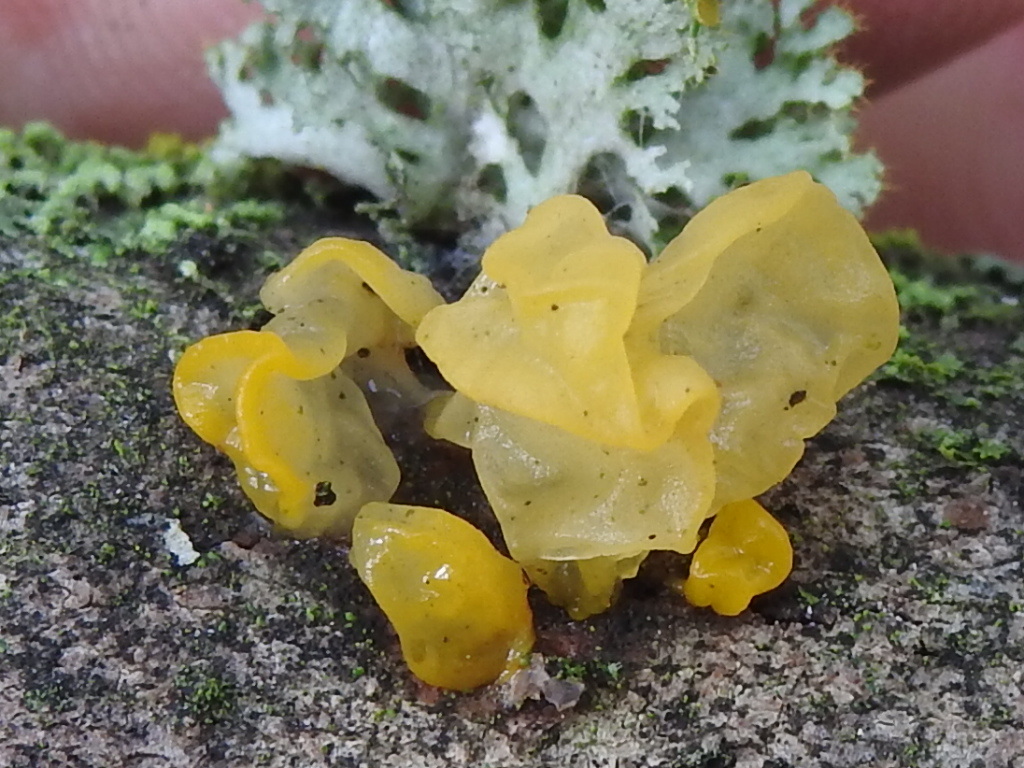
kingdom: Fungi
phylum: Basidiomycota
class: Tremellomycetes
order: Tremellales
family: Tremellaceae
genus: Tremella
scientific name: Tremella mesenterica
